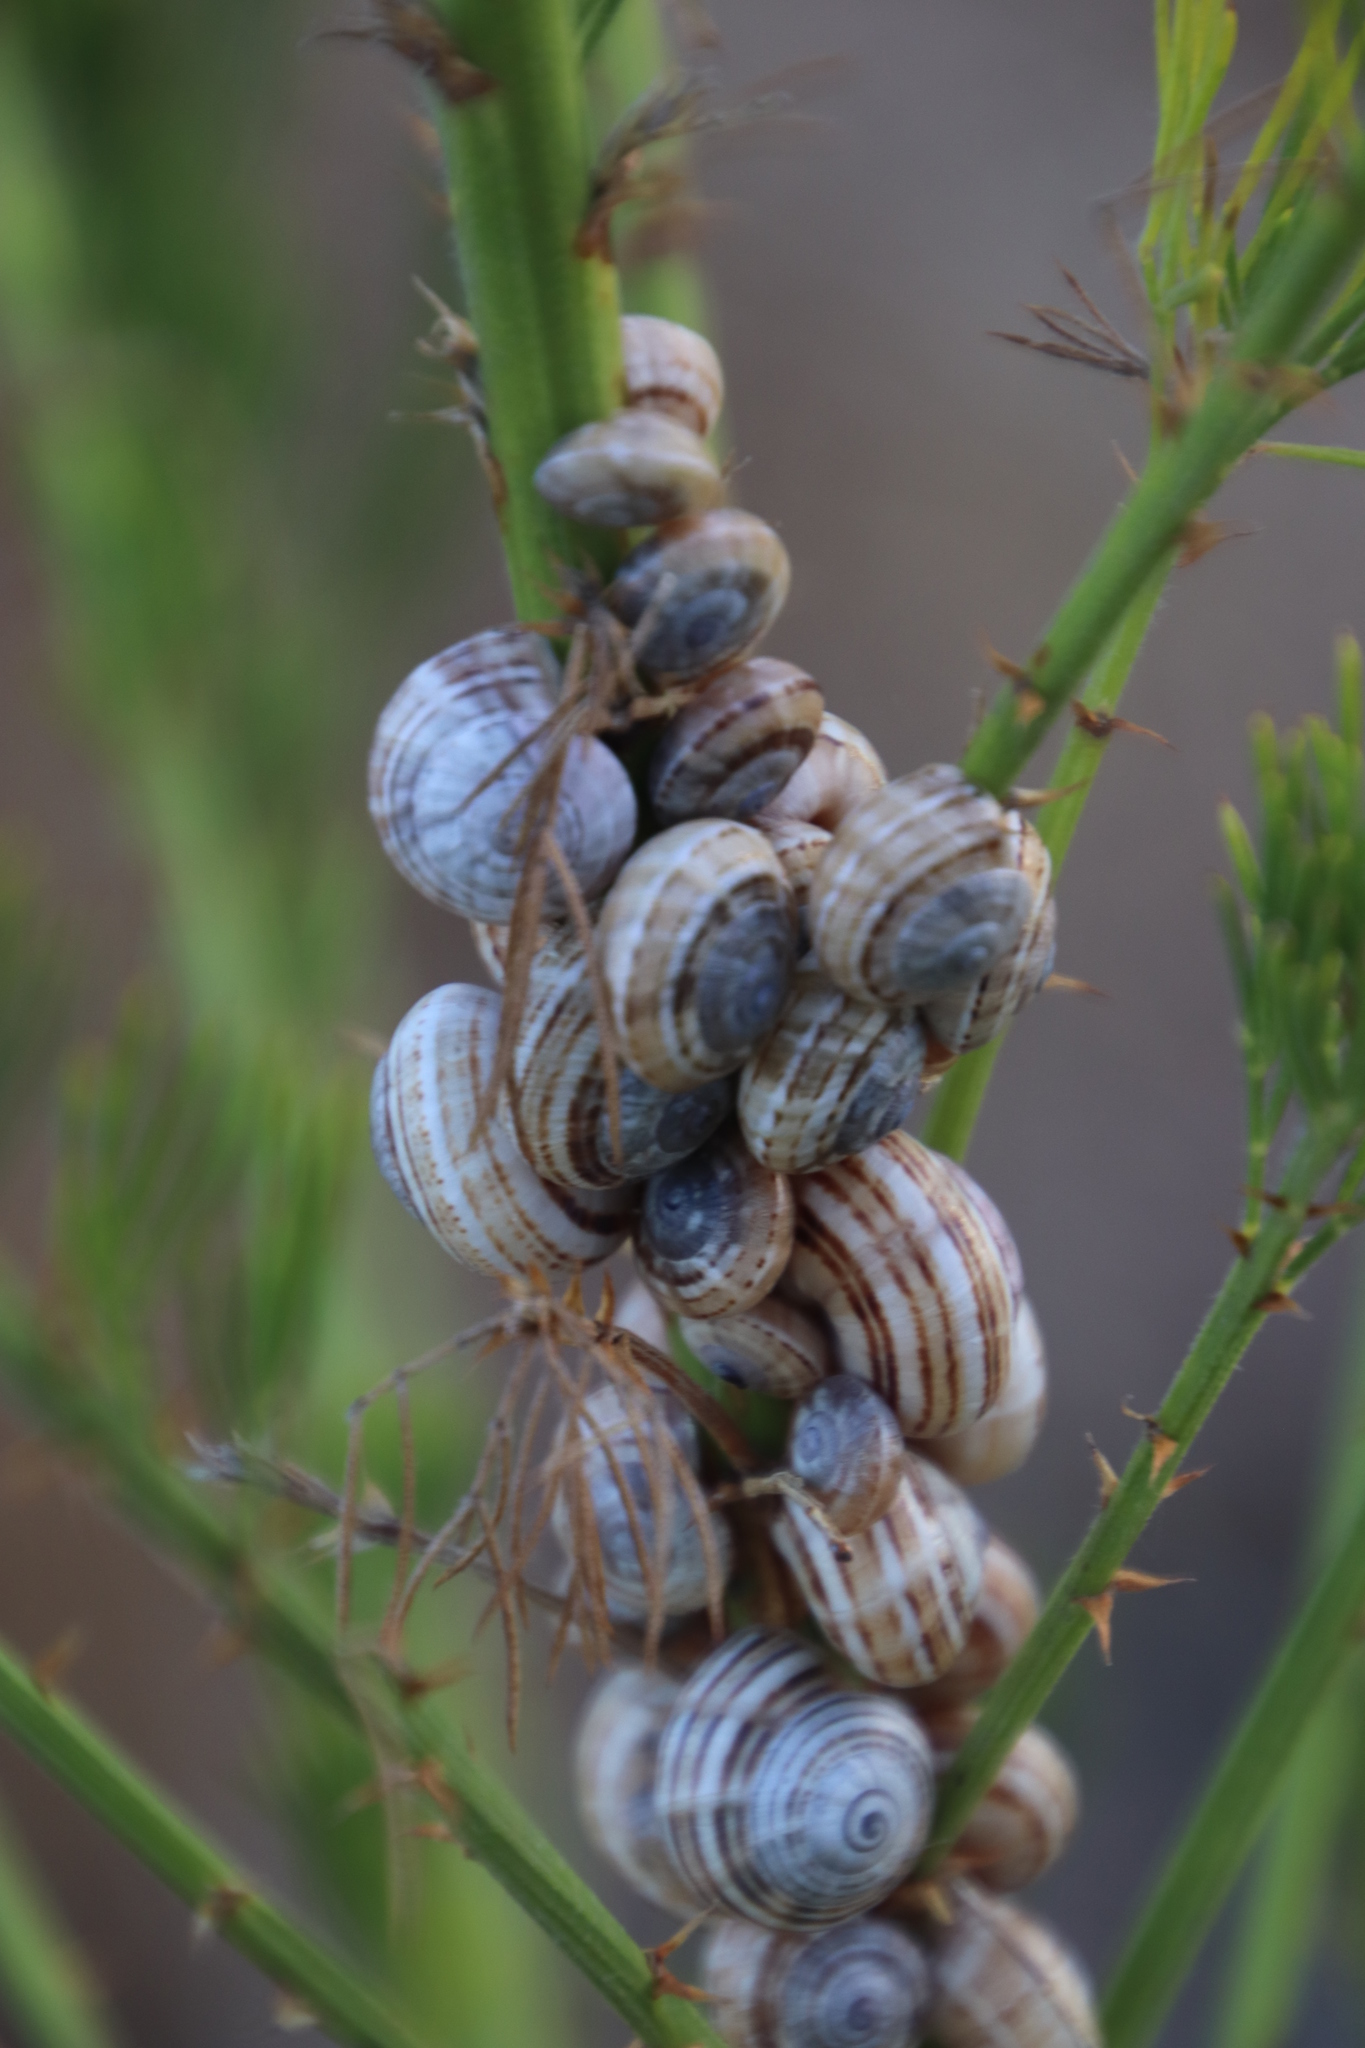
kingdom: Animalia
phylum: Mollusca
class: Gastropoda
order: Stylommatophora
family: Helicidae
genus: Theba
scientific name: Theba pisana
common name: White snail
